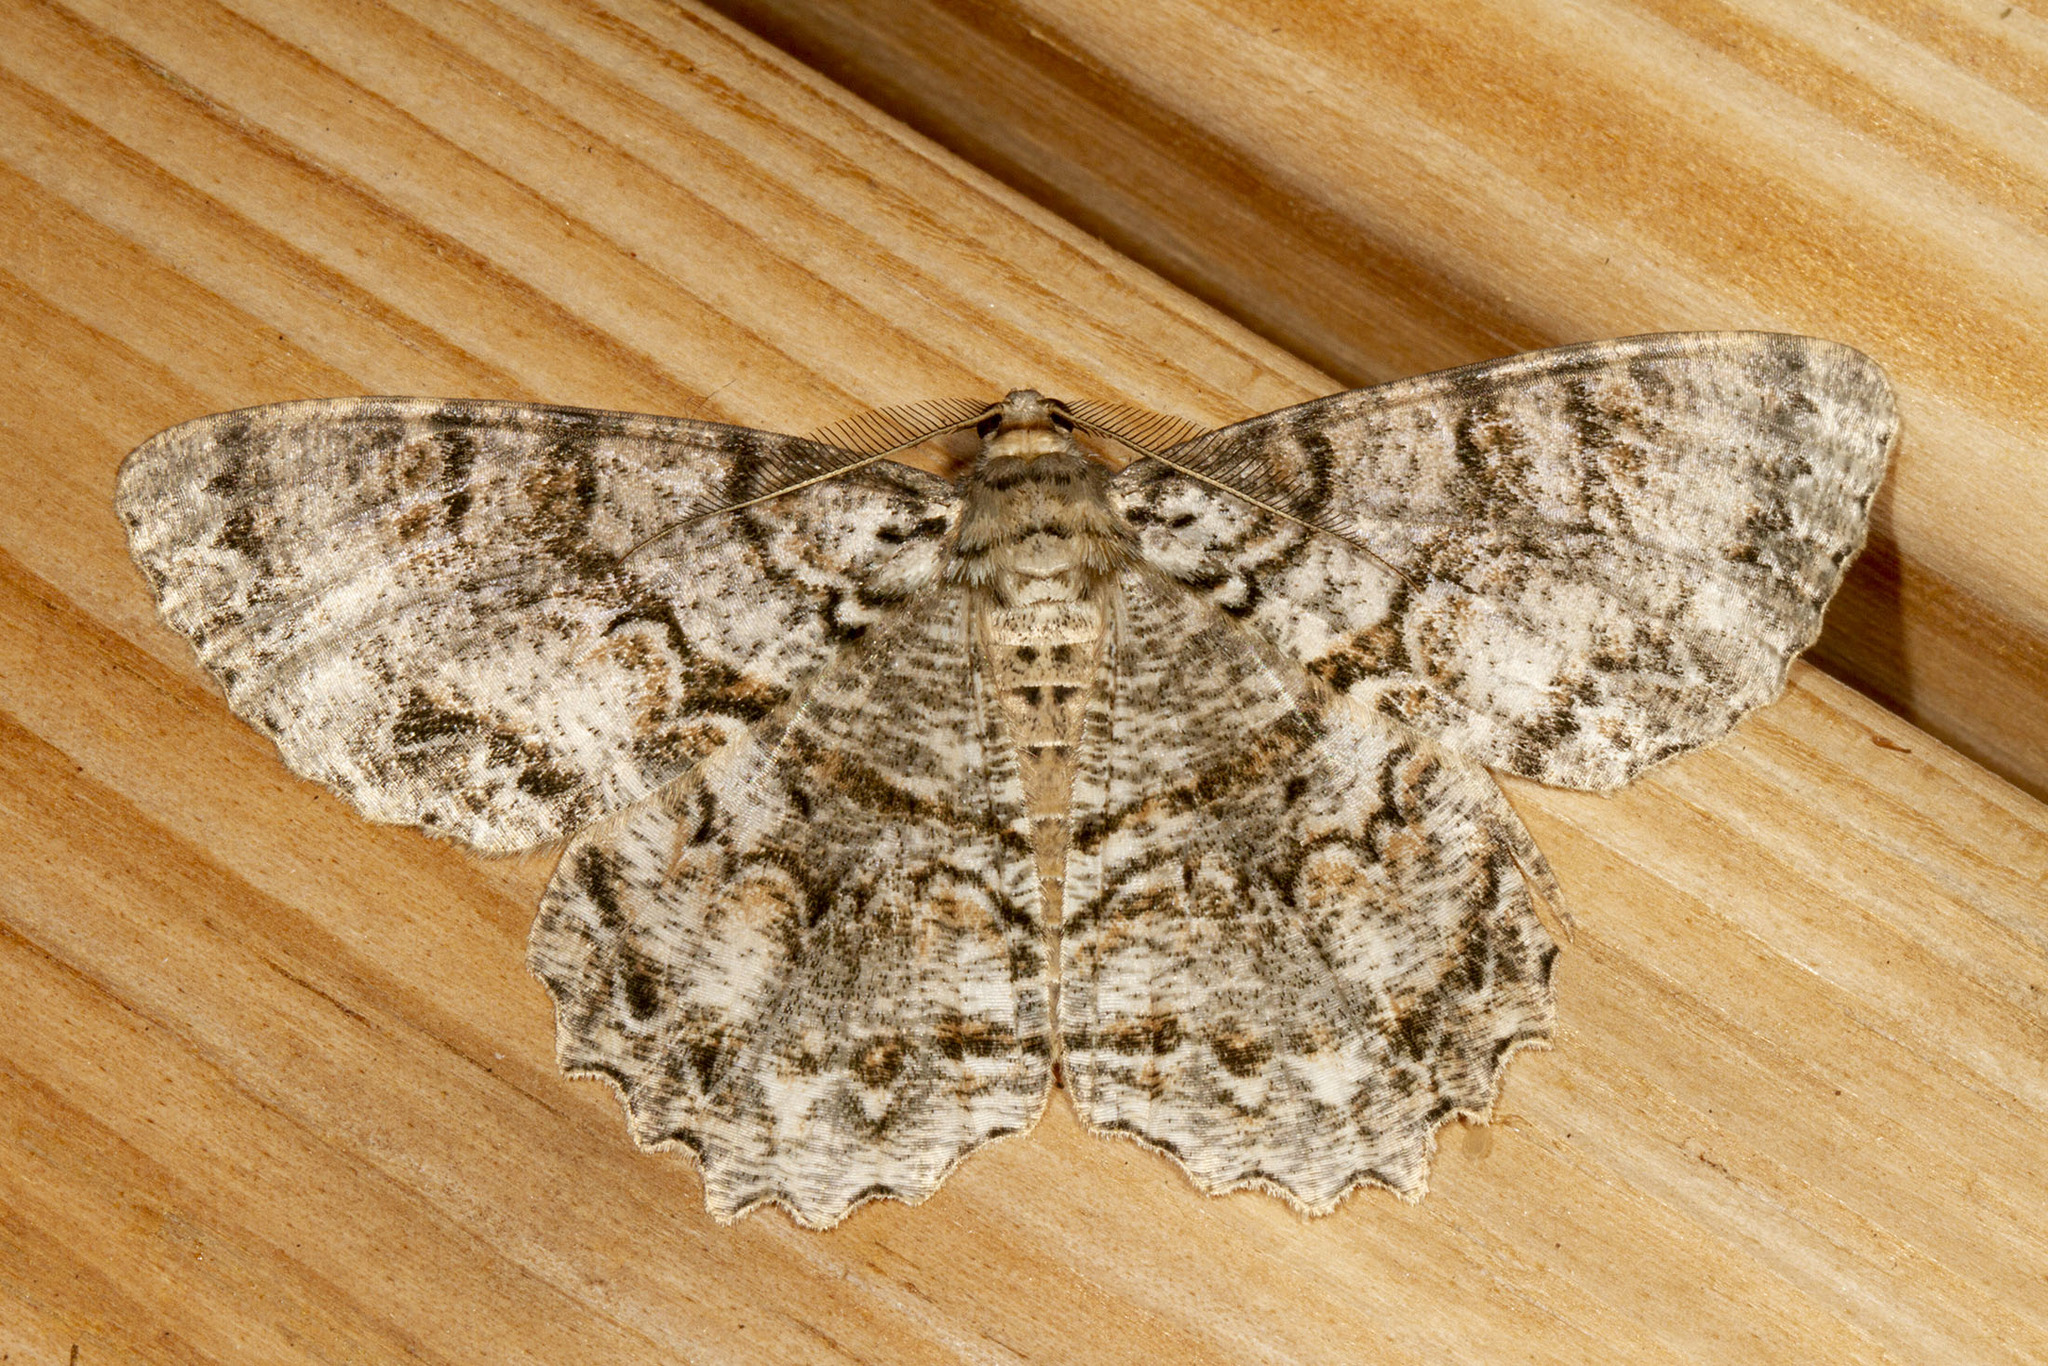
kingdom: Animalia
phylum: Arthropoda
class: Insecta
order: Lepidoptera
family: Geometridae
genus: Epimecis
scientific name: Epimecis hortaria
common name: Tulip-tree beauty
